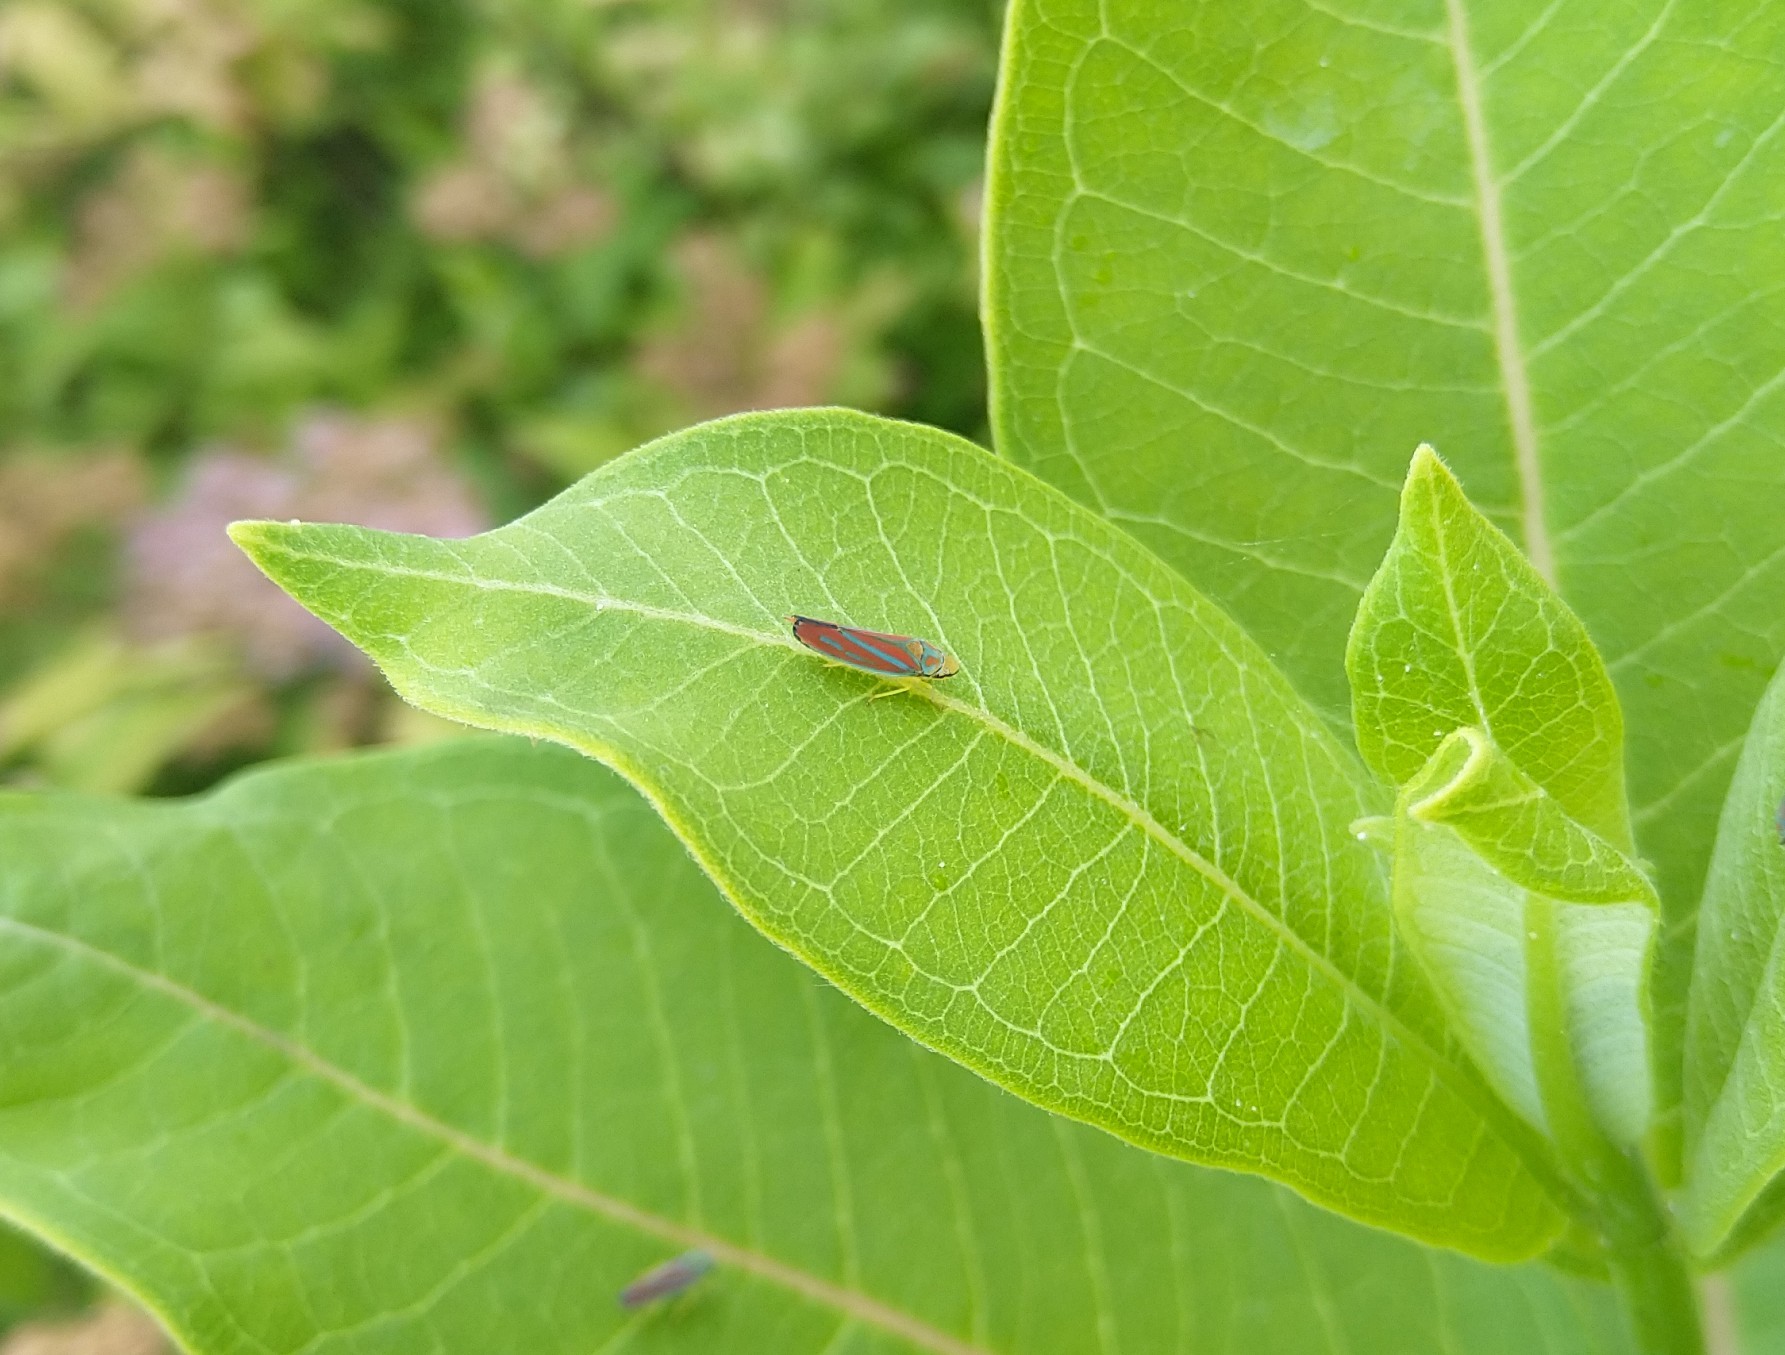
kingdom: Animalia
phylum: Arthropoda
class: Insecta
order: Hemiptera
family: Cicadellidae
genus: Graphocephala
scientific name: Graphocephala coccinea
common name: Candy-striped leafhopper
